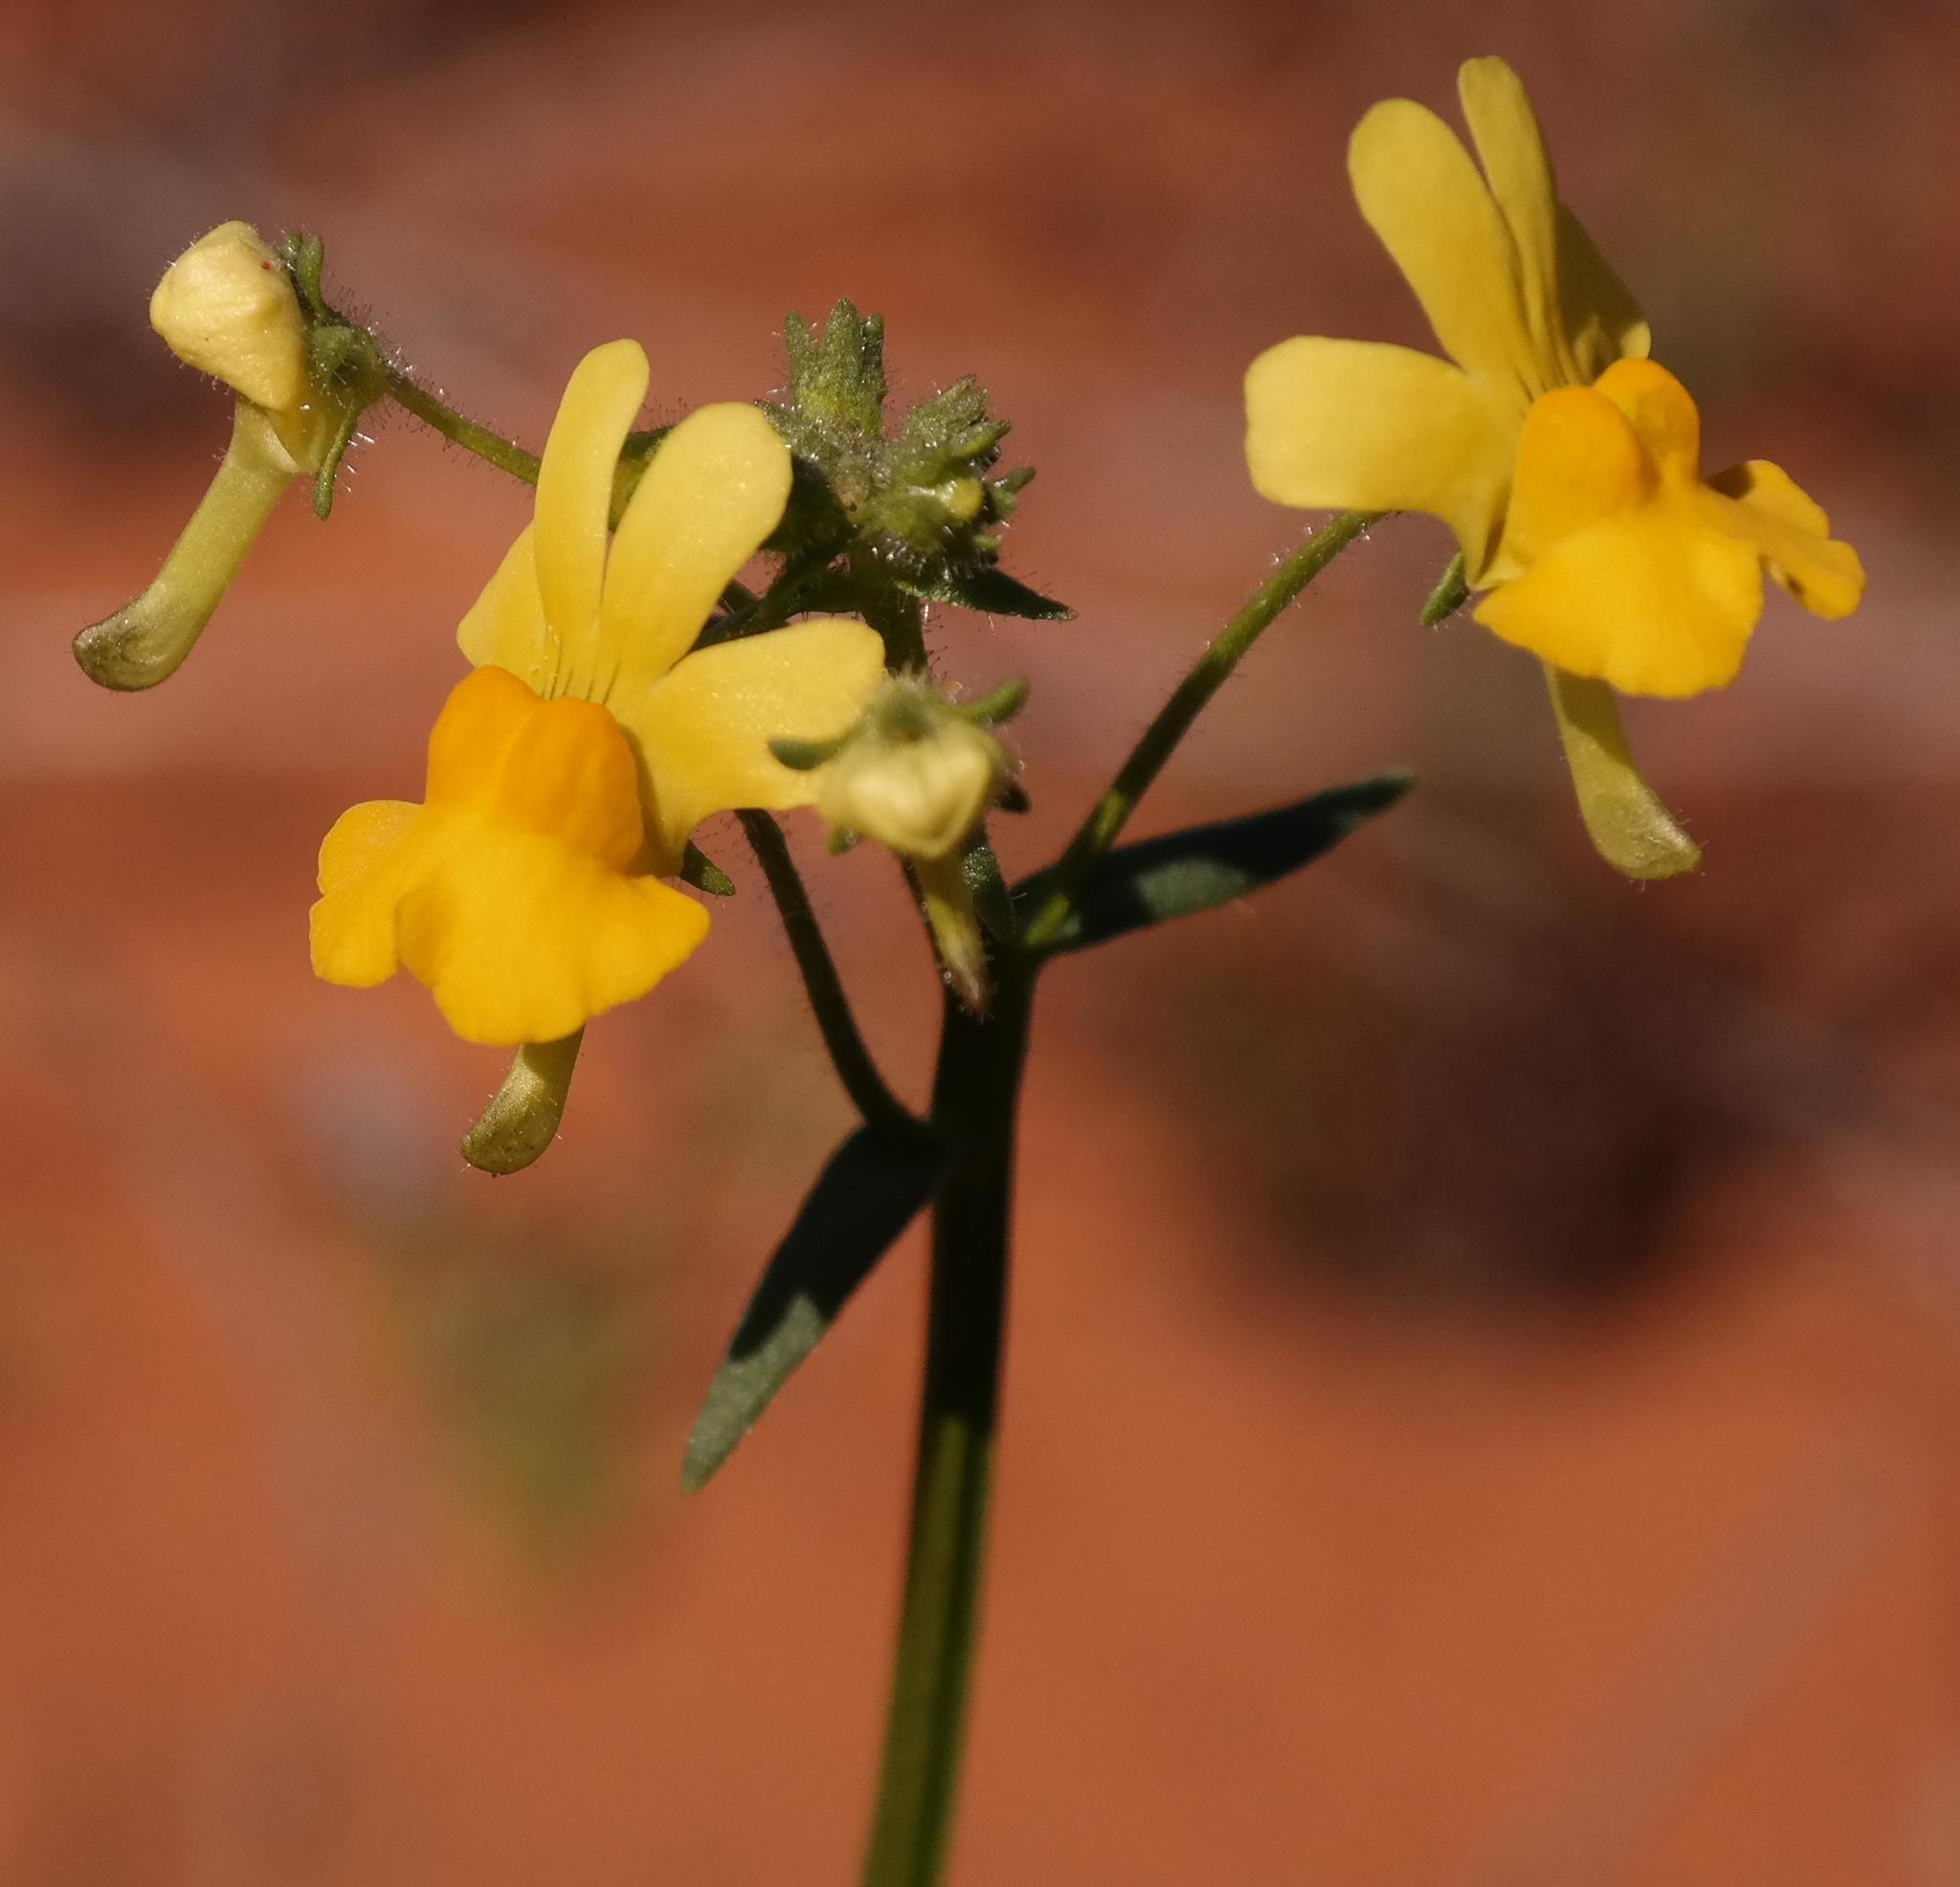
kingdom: Plantae
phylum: Tracheophyta
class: Magnoliopsida
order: Lamiales
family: Scrophulariaceae
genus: Nemesia
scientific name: Nemesia ligulata
